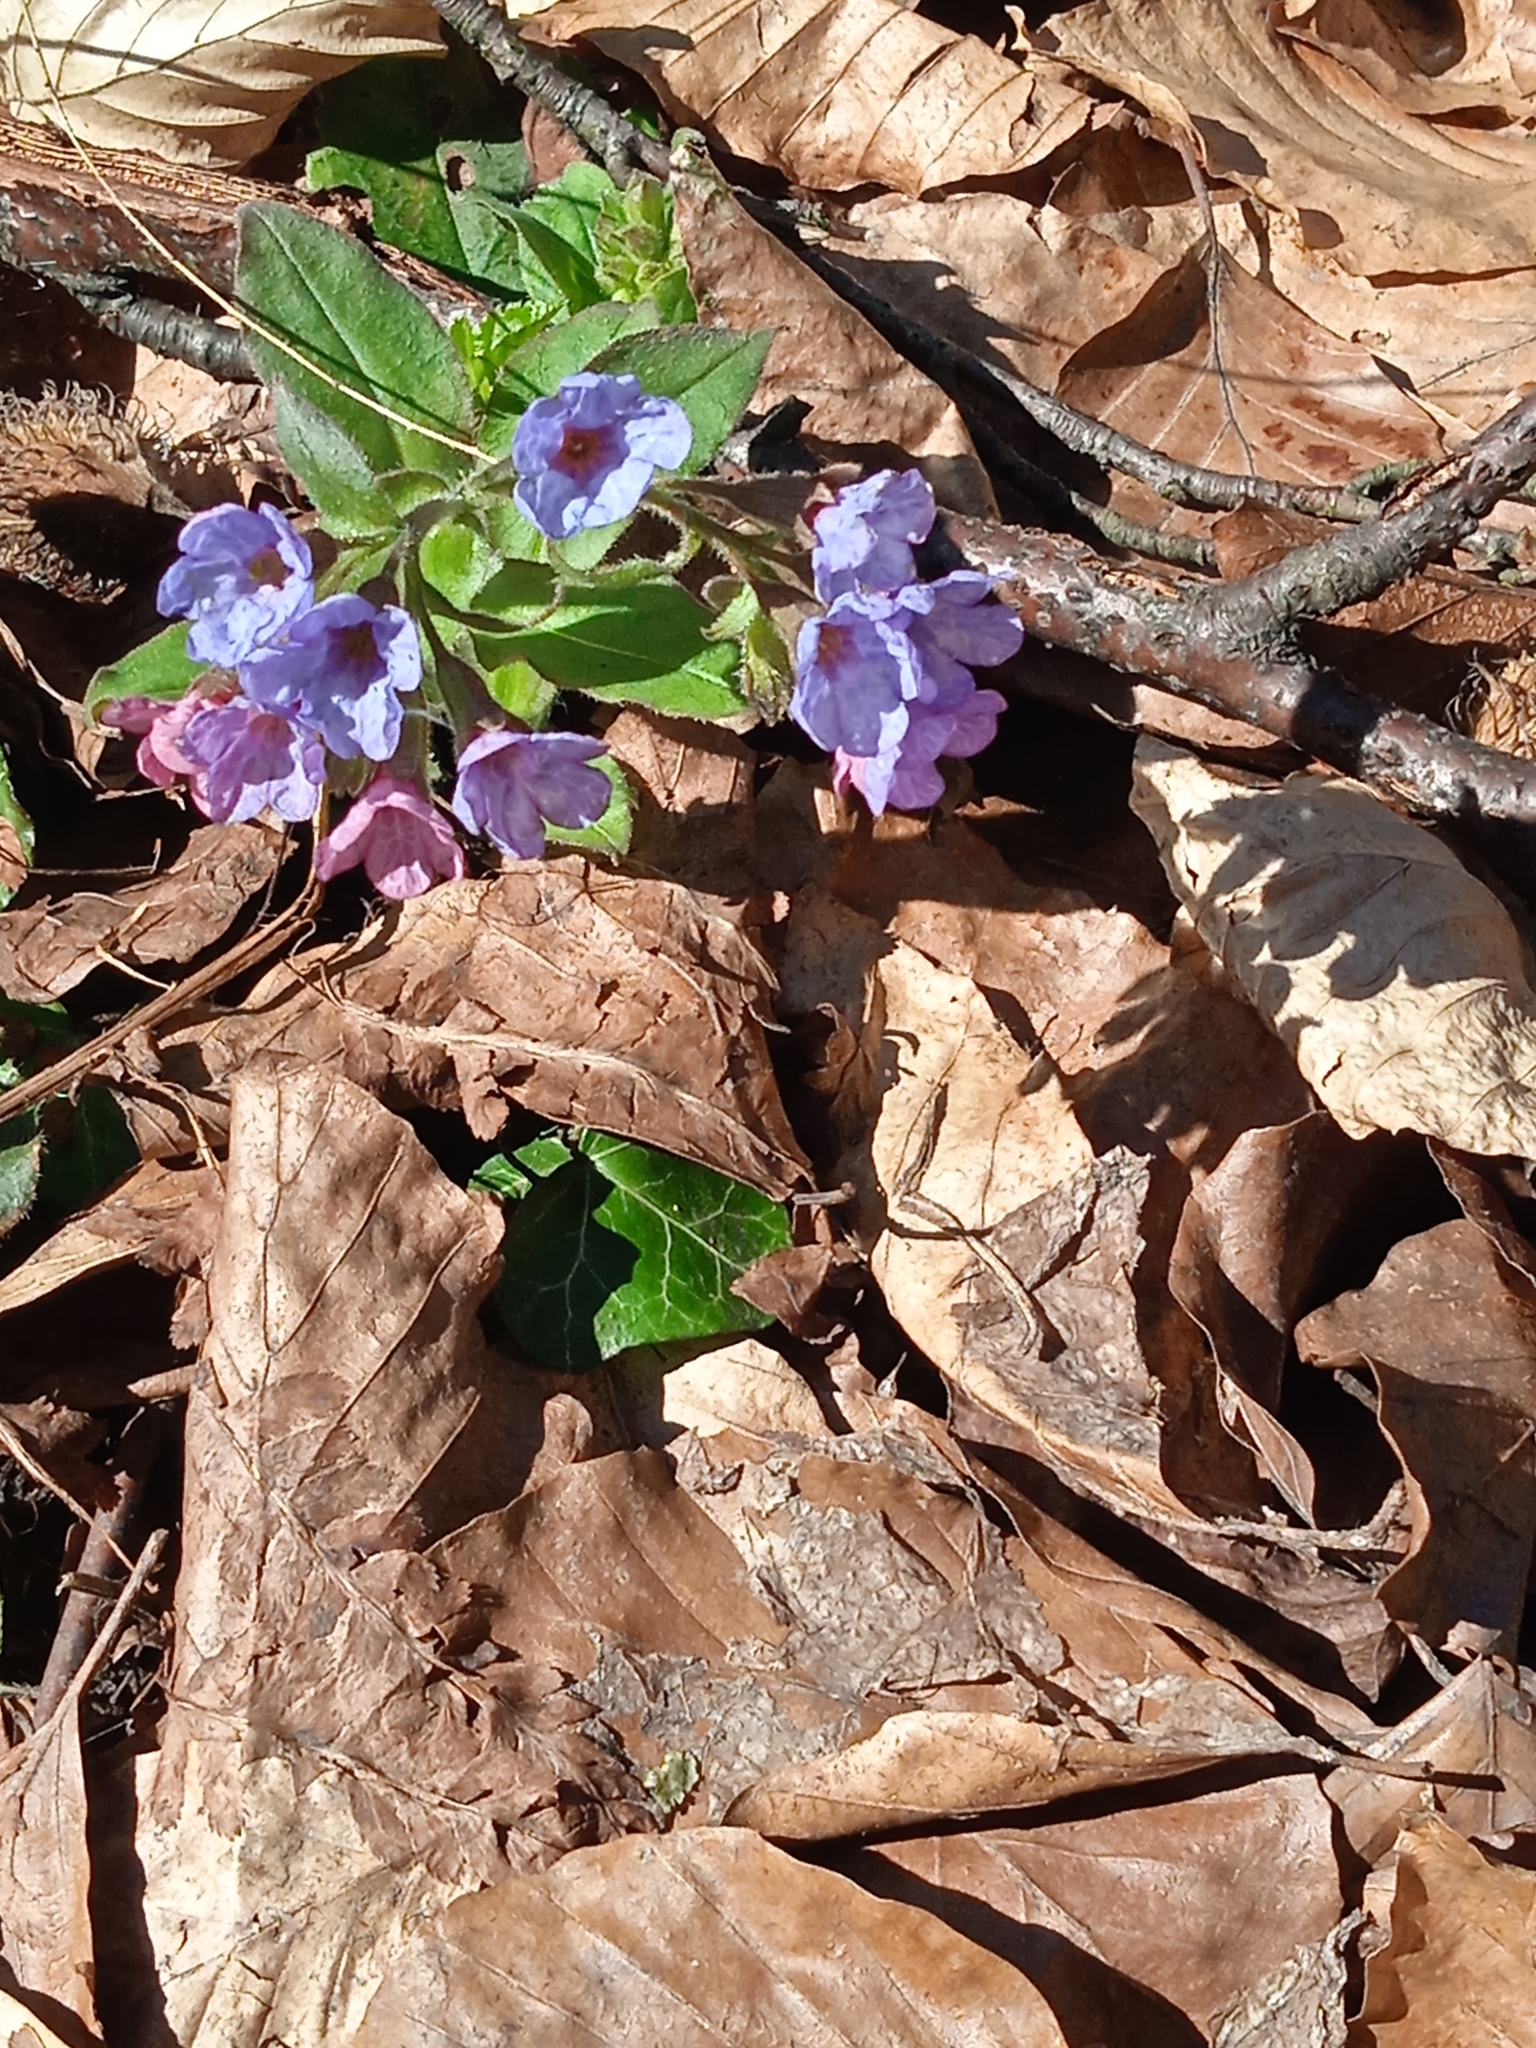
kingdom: Plantae
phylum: Tracheophyta
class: Magnoliopsida
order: Boraginales
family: Boraginaceae
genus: Pulmonaria
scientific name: Pulmonaria obscura
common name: Suffolk lungwort
